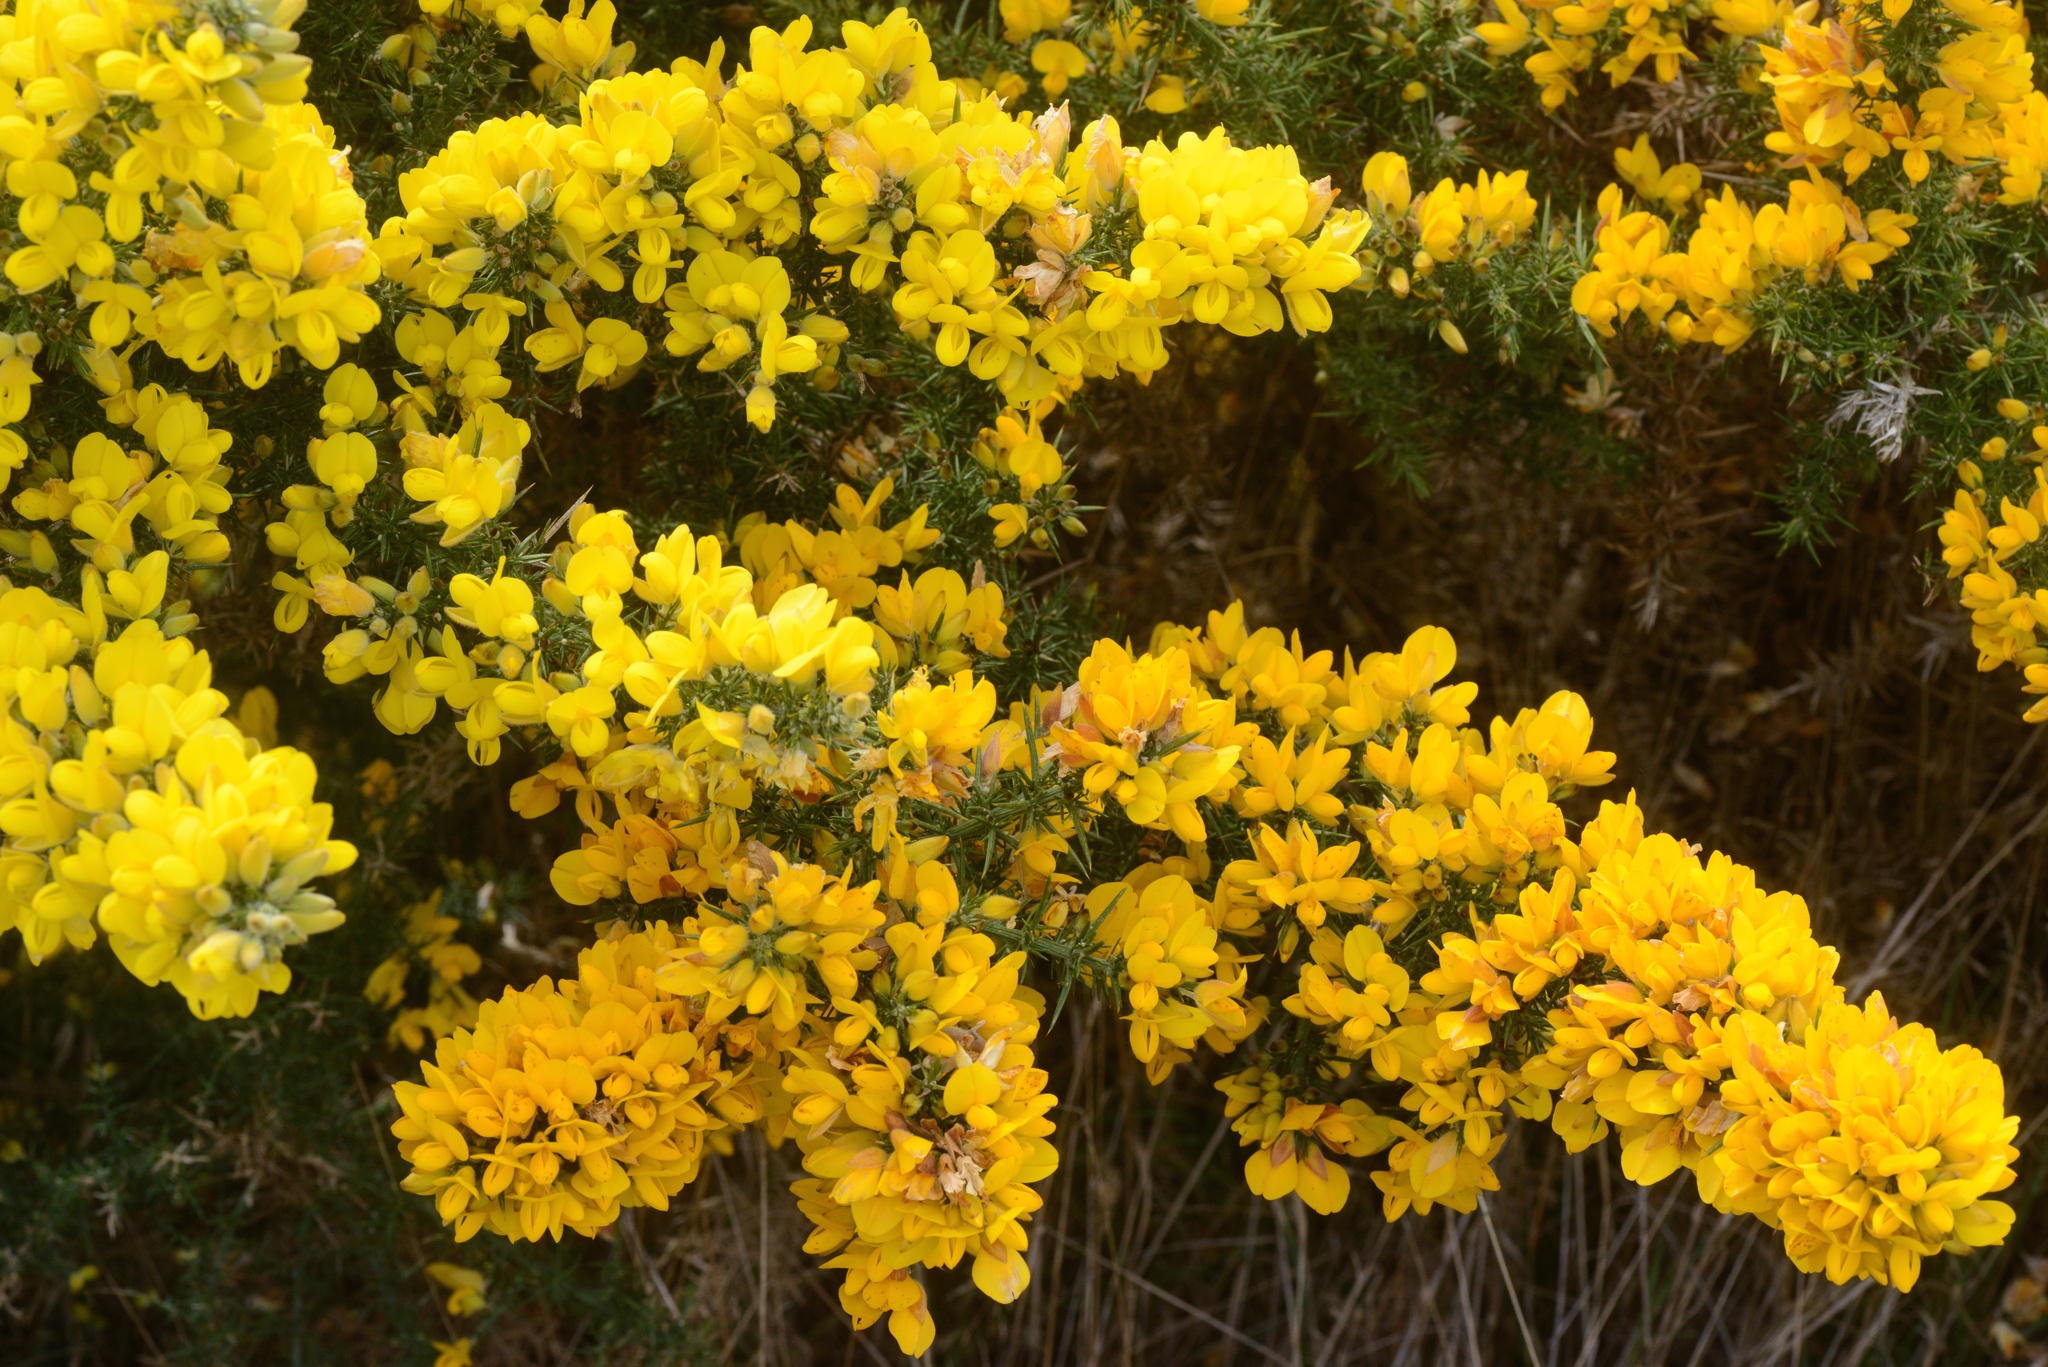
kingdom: Plantae
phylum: Tracheophyta
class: Magnoliopsida
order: Fabales
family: Fabaceae
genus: Ulex
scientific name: Ulex europaeus
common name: Common gorse
